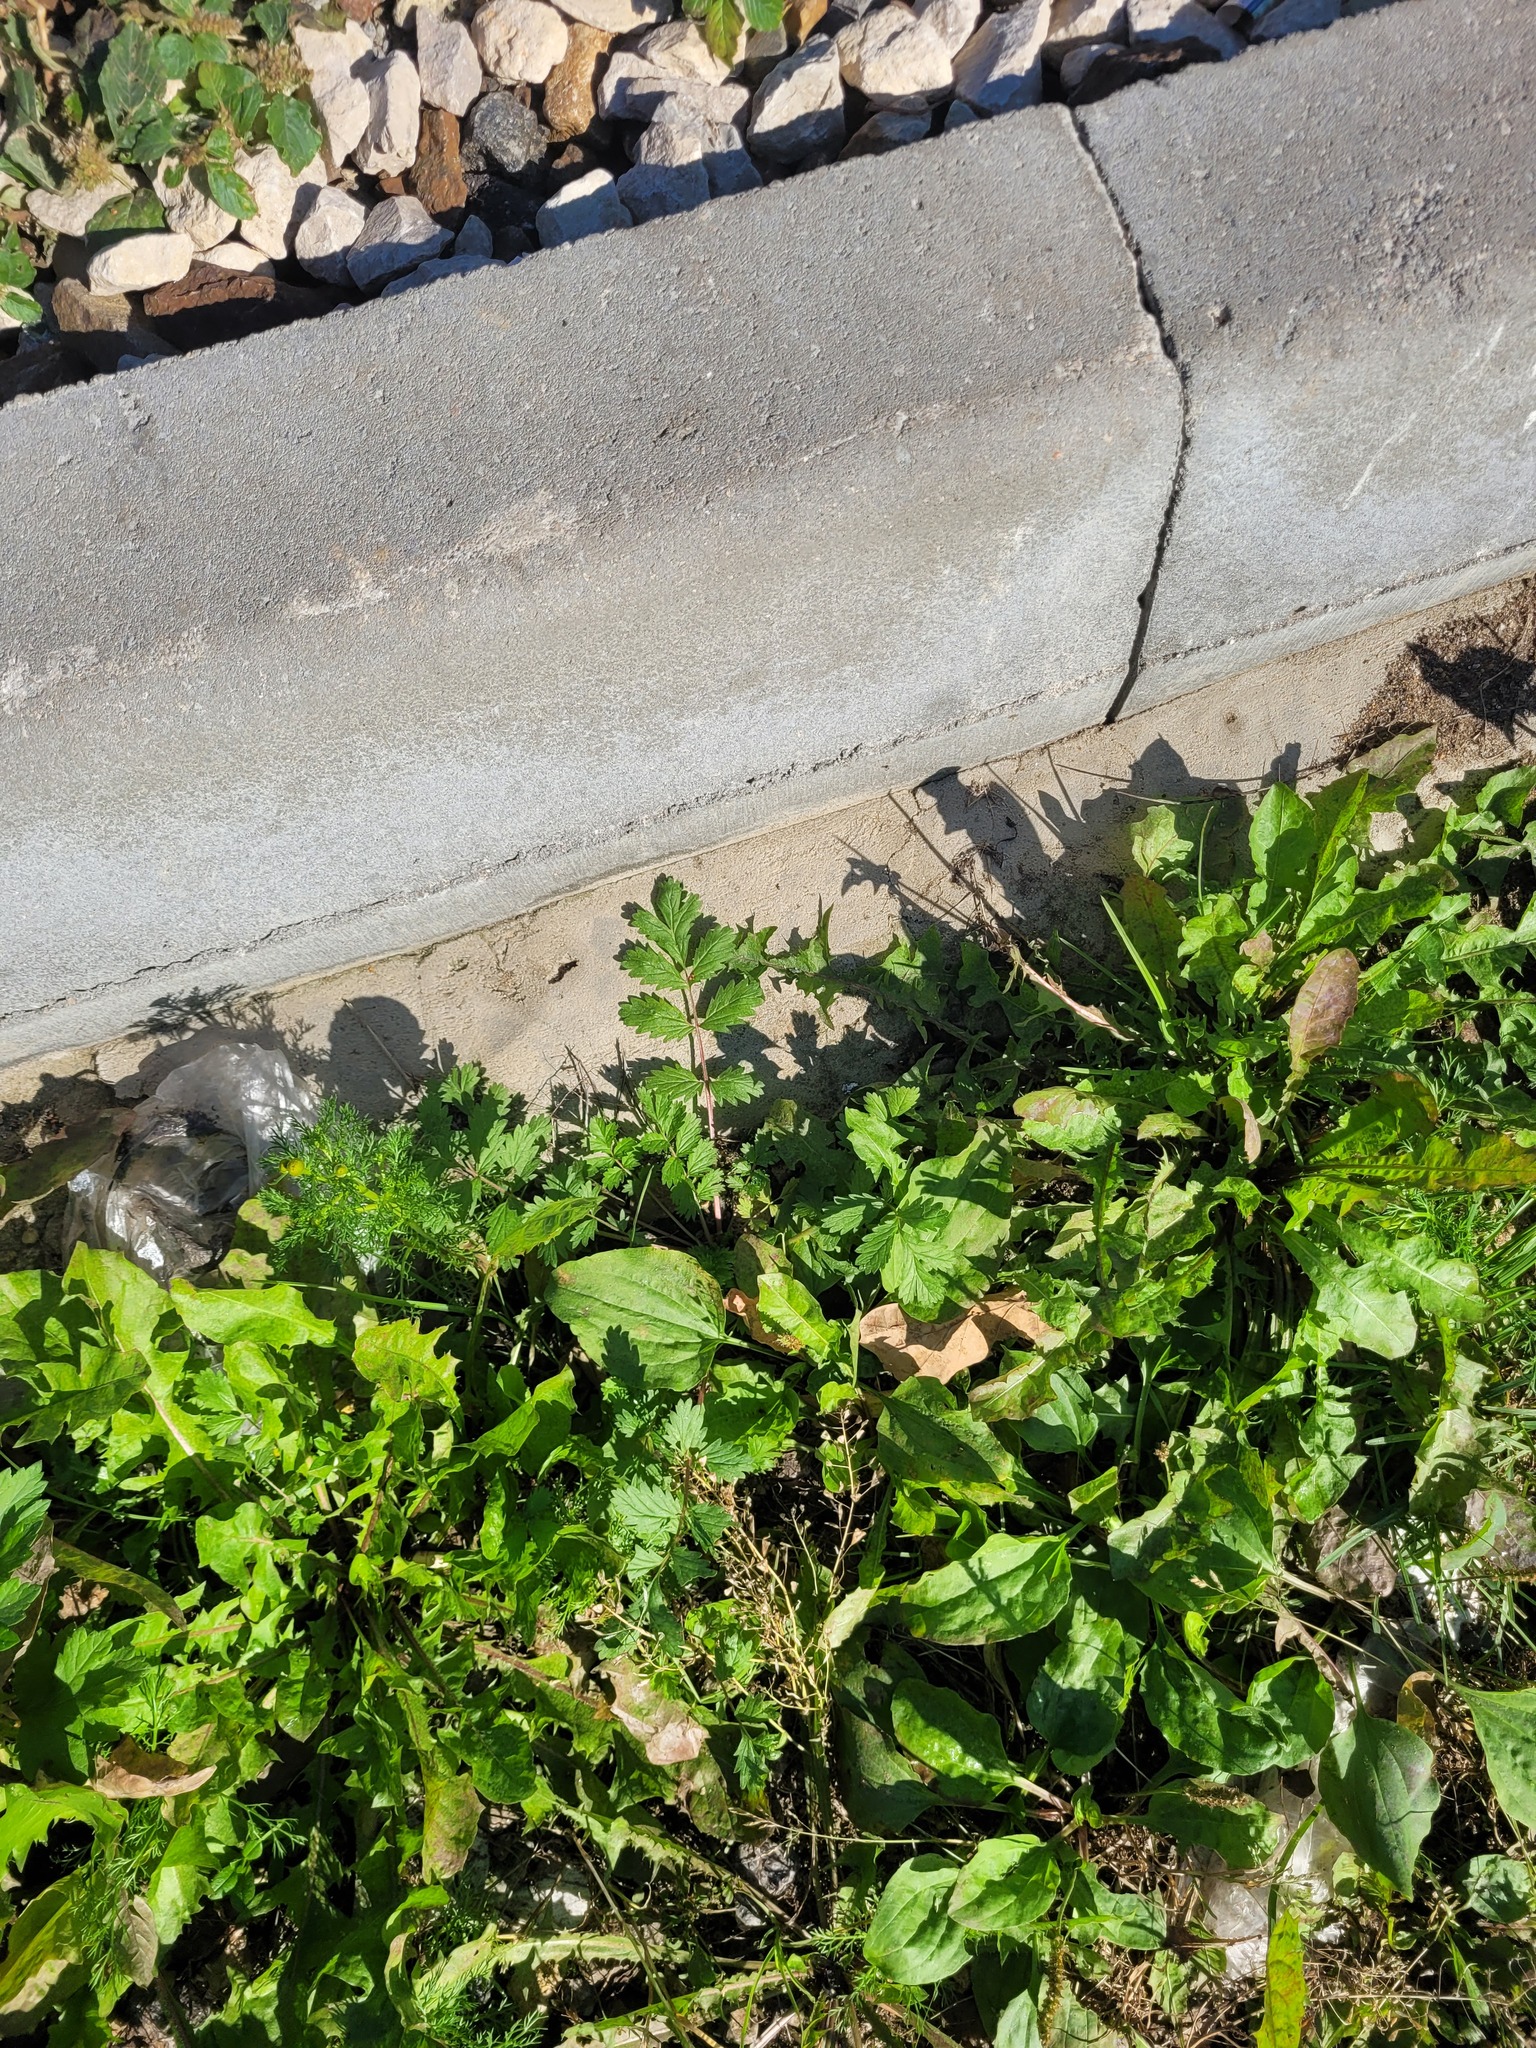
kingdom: Plantae
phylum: Tracheophyta
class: Magnoliopsida
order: Rosales
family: Rosaceae
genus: Potentilla
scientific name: Potentilla supina
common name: Prostrate cinquefoil
